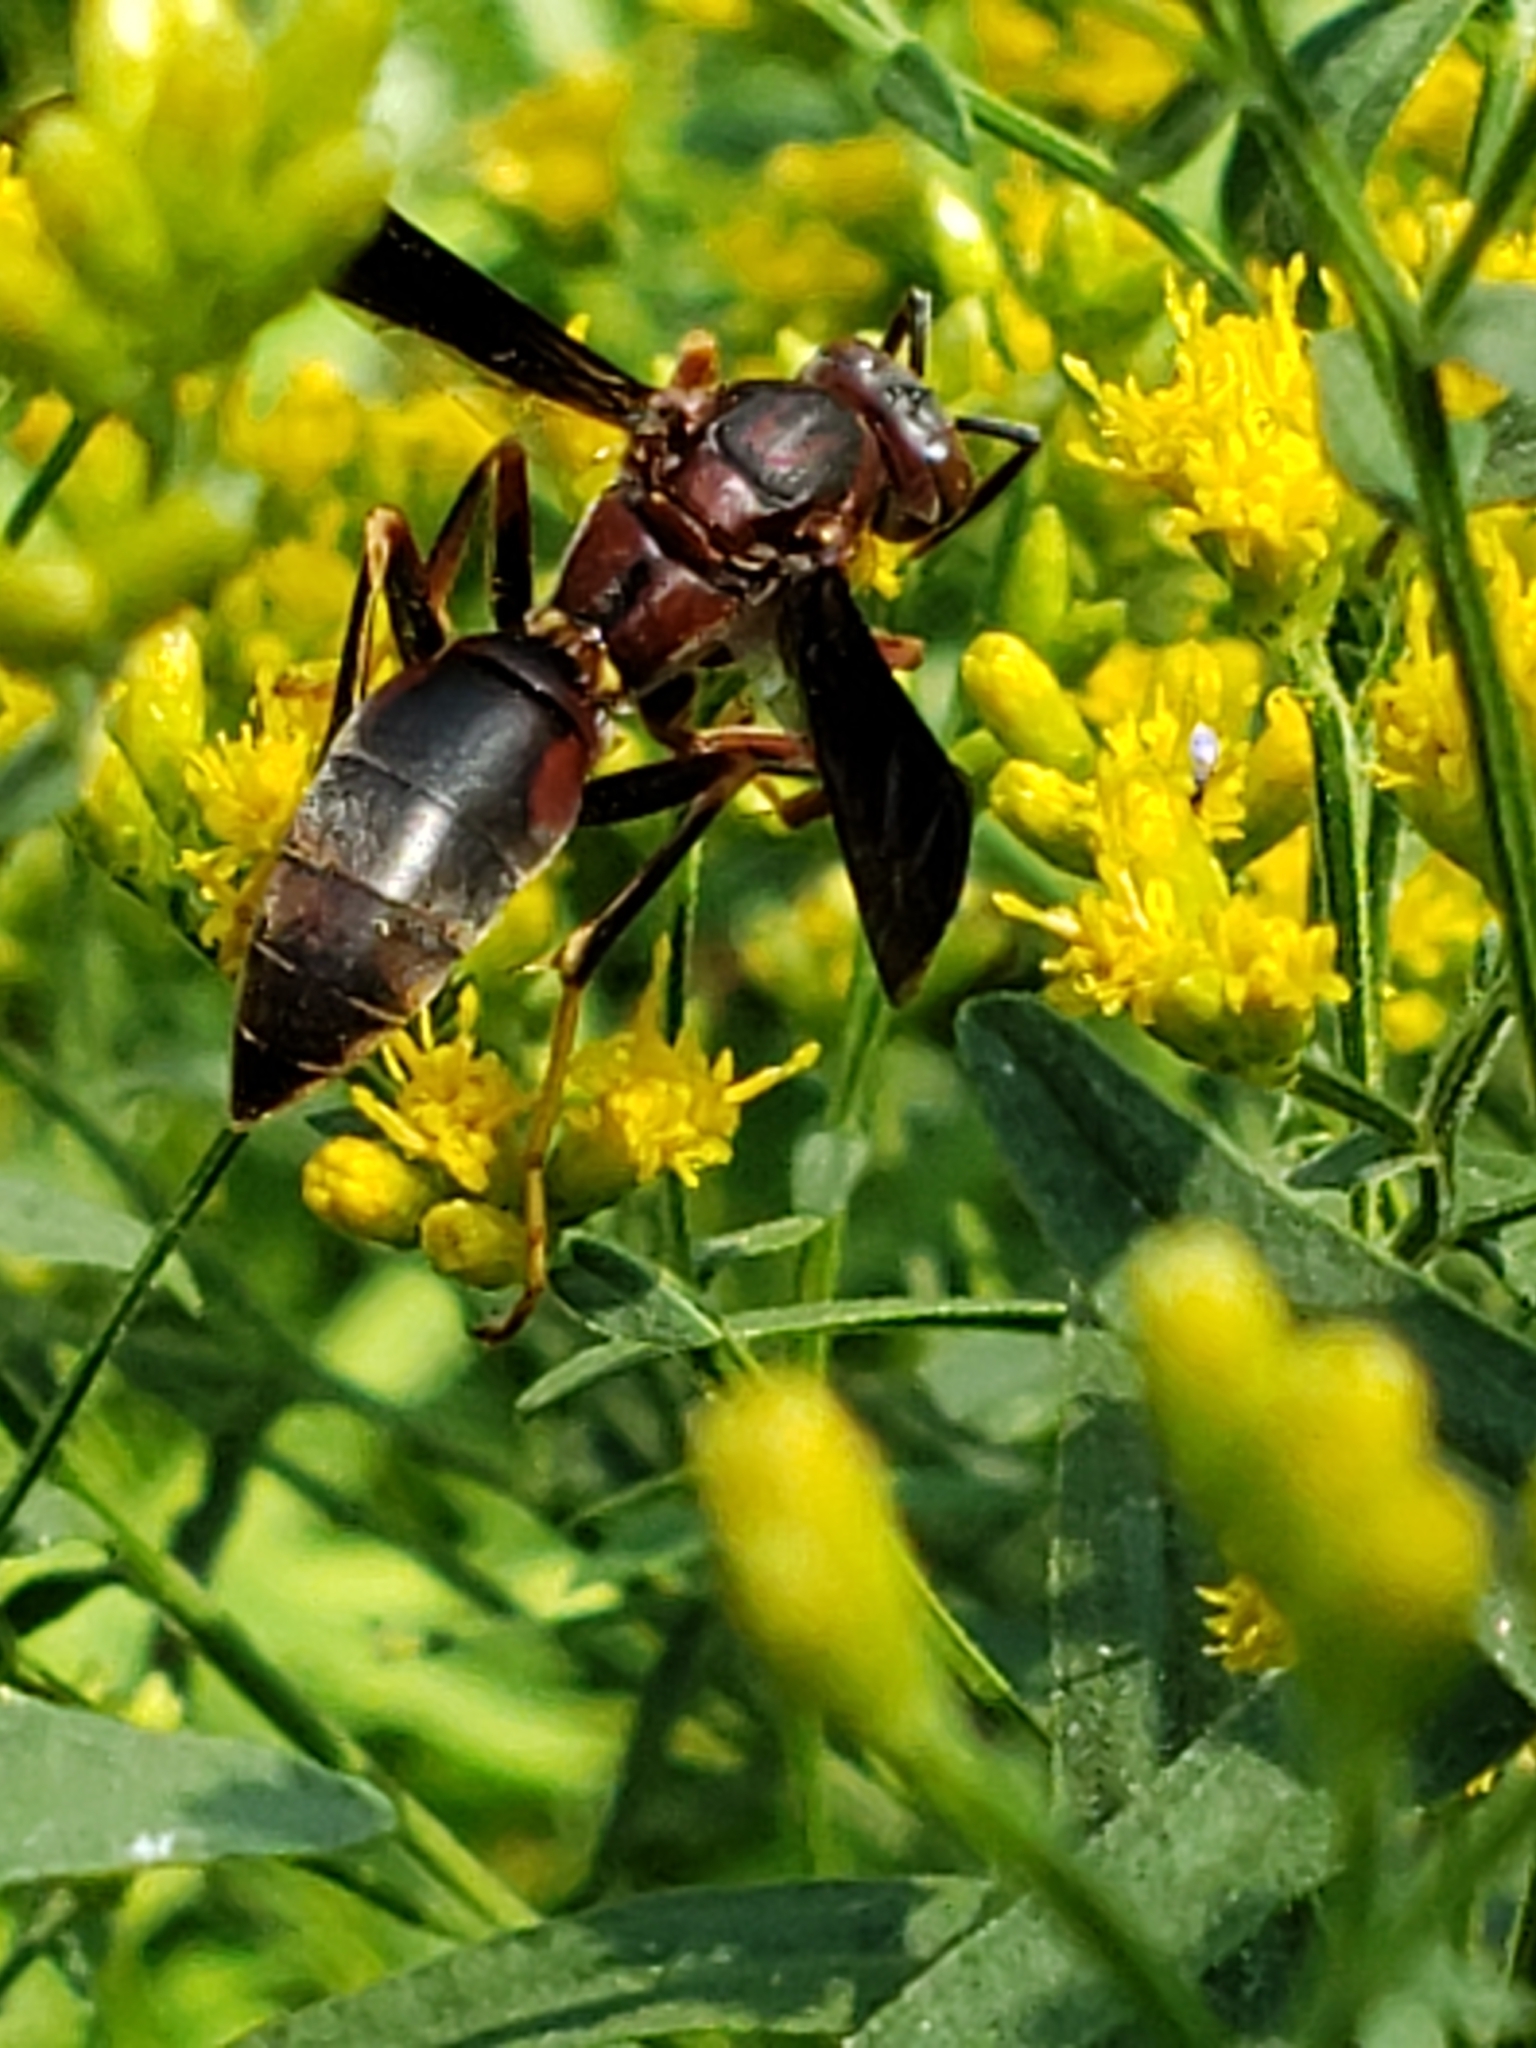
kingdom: Animalia
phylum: Arthropoda
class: Insecta
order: Hymenoptera
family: Eumenidae
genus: Polistes
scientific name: Polistes fuscatus
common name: Dark paper wasp
